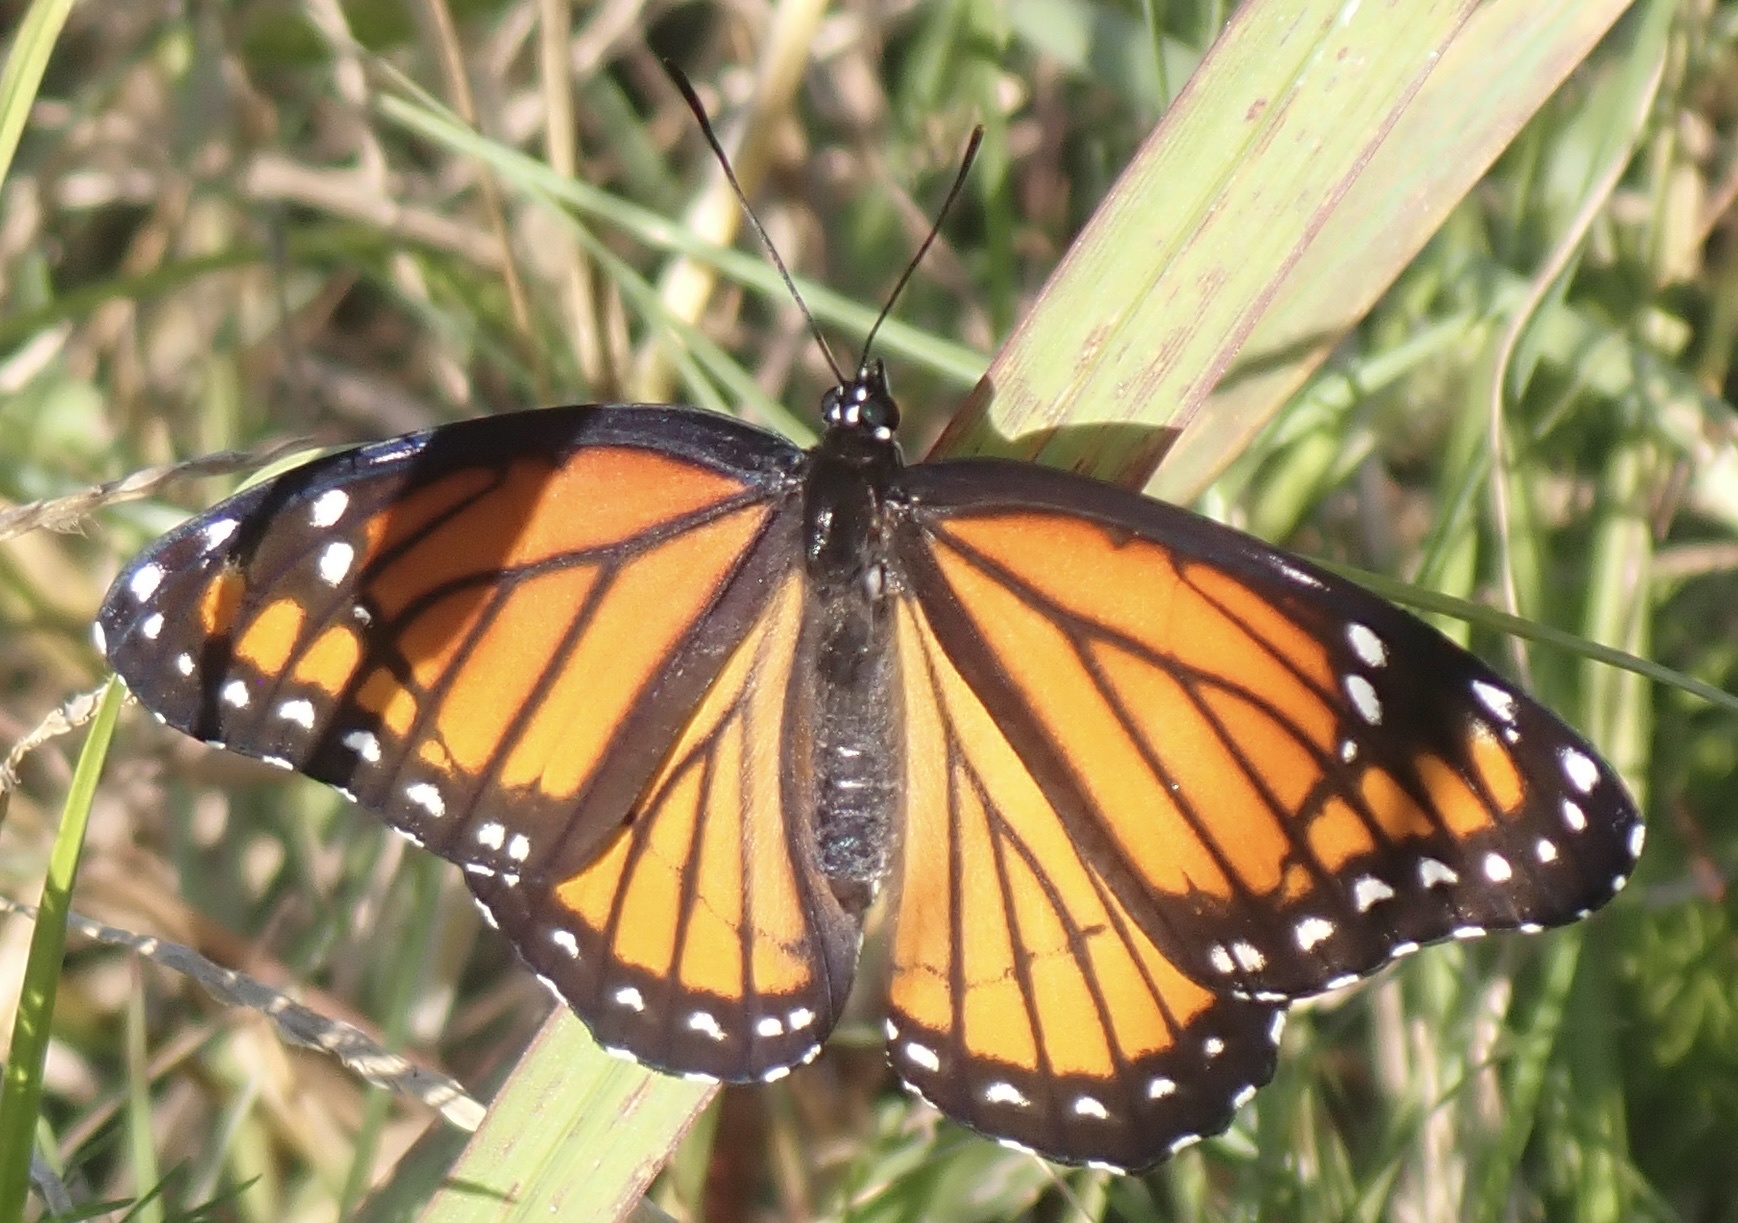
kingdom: Animalia
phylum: Arthropoda
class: Insecta
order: Lepidoptera
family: Nymphalidae
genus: Limenitis
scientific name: Limenitis archippus
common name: Viceroy
